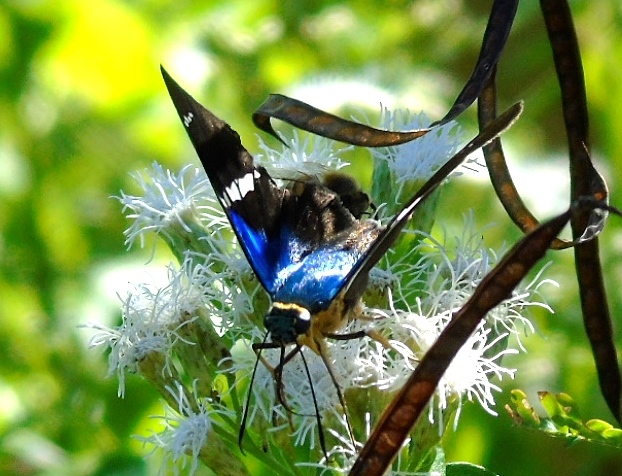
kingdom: Animalia
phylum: Arthropoda
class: Insecta
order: Lepidoptera
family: Hesperiidae
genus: Astraptes
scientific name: Astraptes fulgerator
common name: Two-barred flasher
